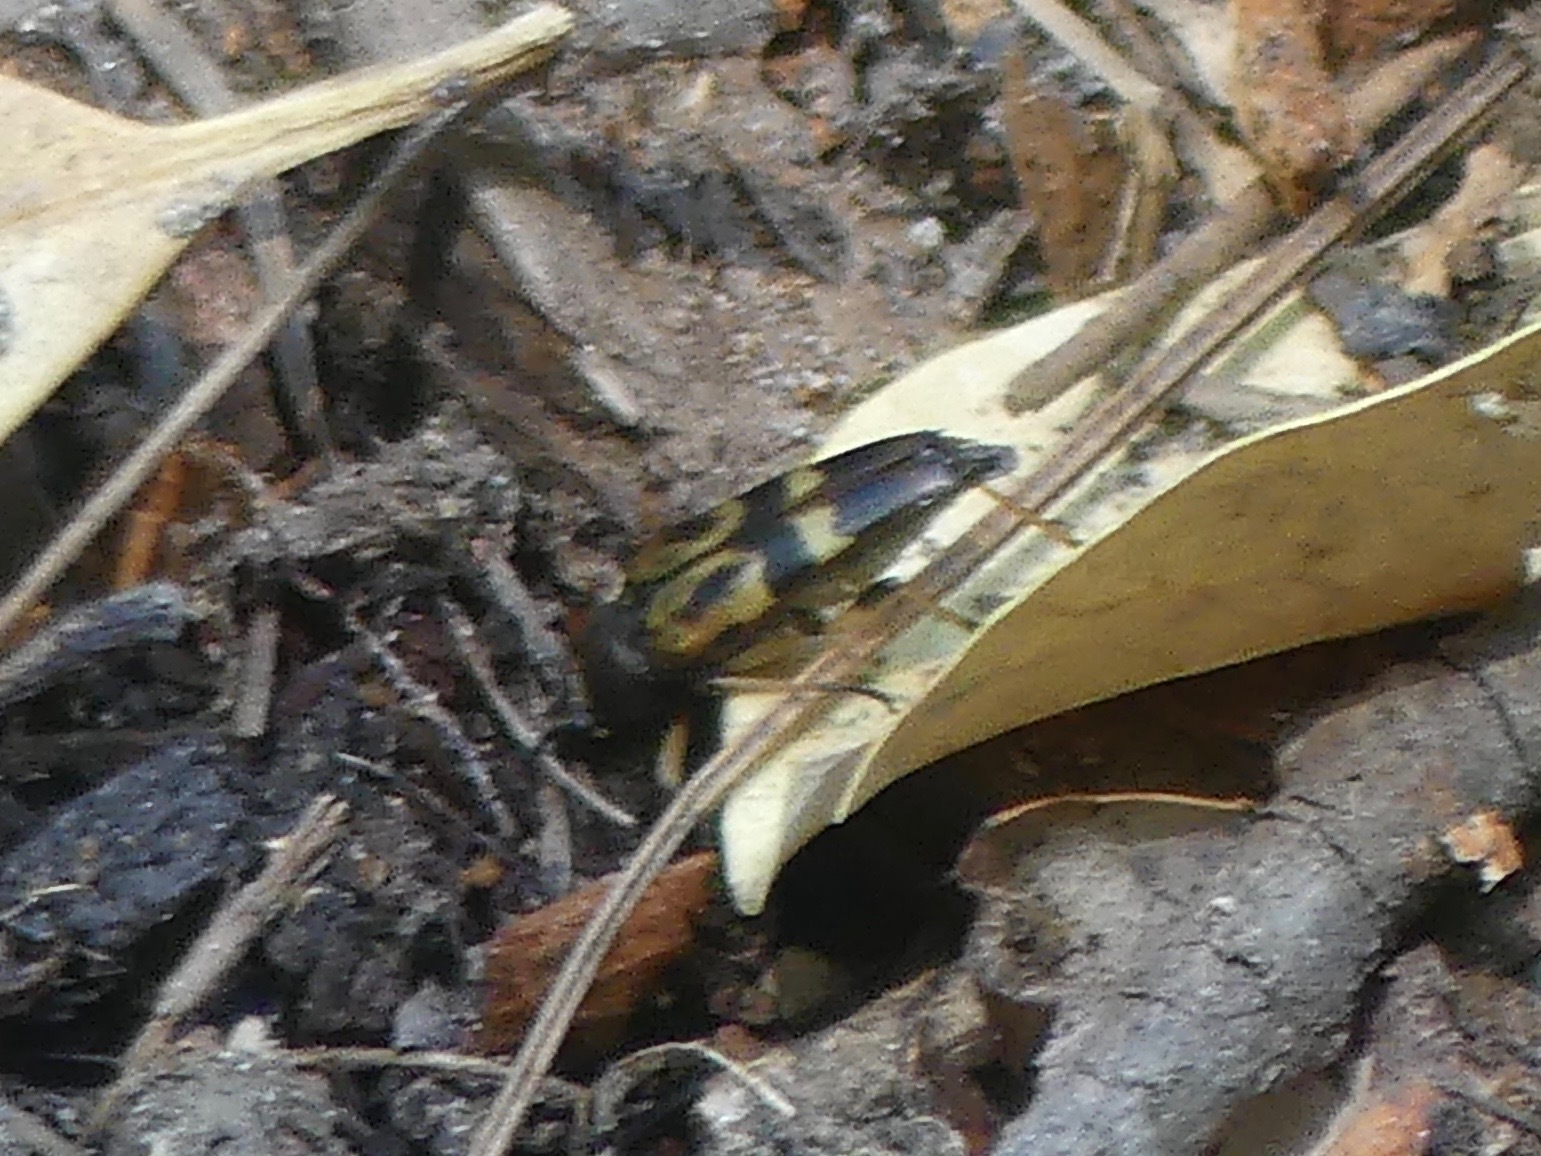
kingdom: Animalia
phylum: Arthropoda
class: Insecta
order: Coleoptera
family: Cerambycidae
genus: Etorofus
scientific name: Etorofus obliteratus
